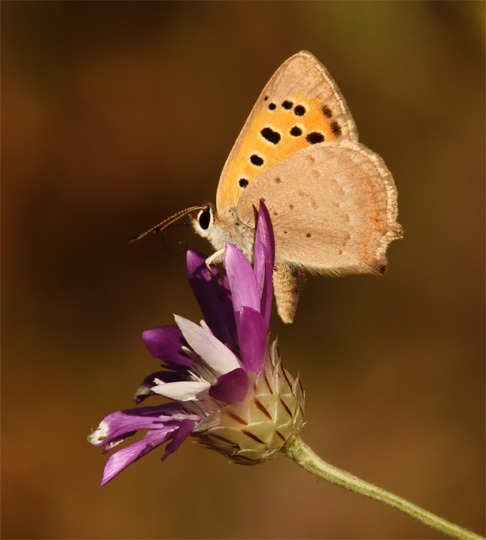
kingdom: Animalia
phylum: Arthropoda
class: Insecta
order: Lepidoptera
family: Lycaenidae
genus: Lycaena
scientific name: Lycaena phlaeas
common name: Small copper
